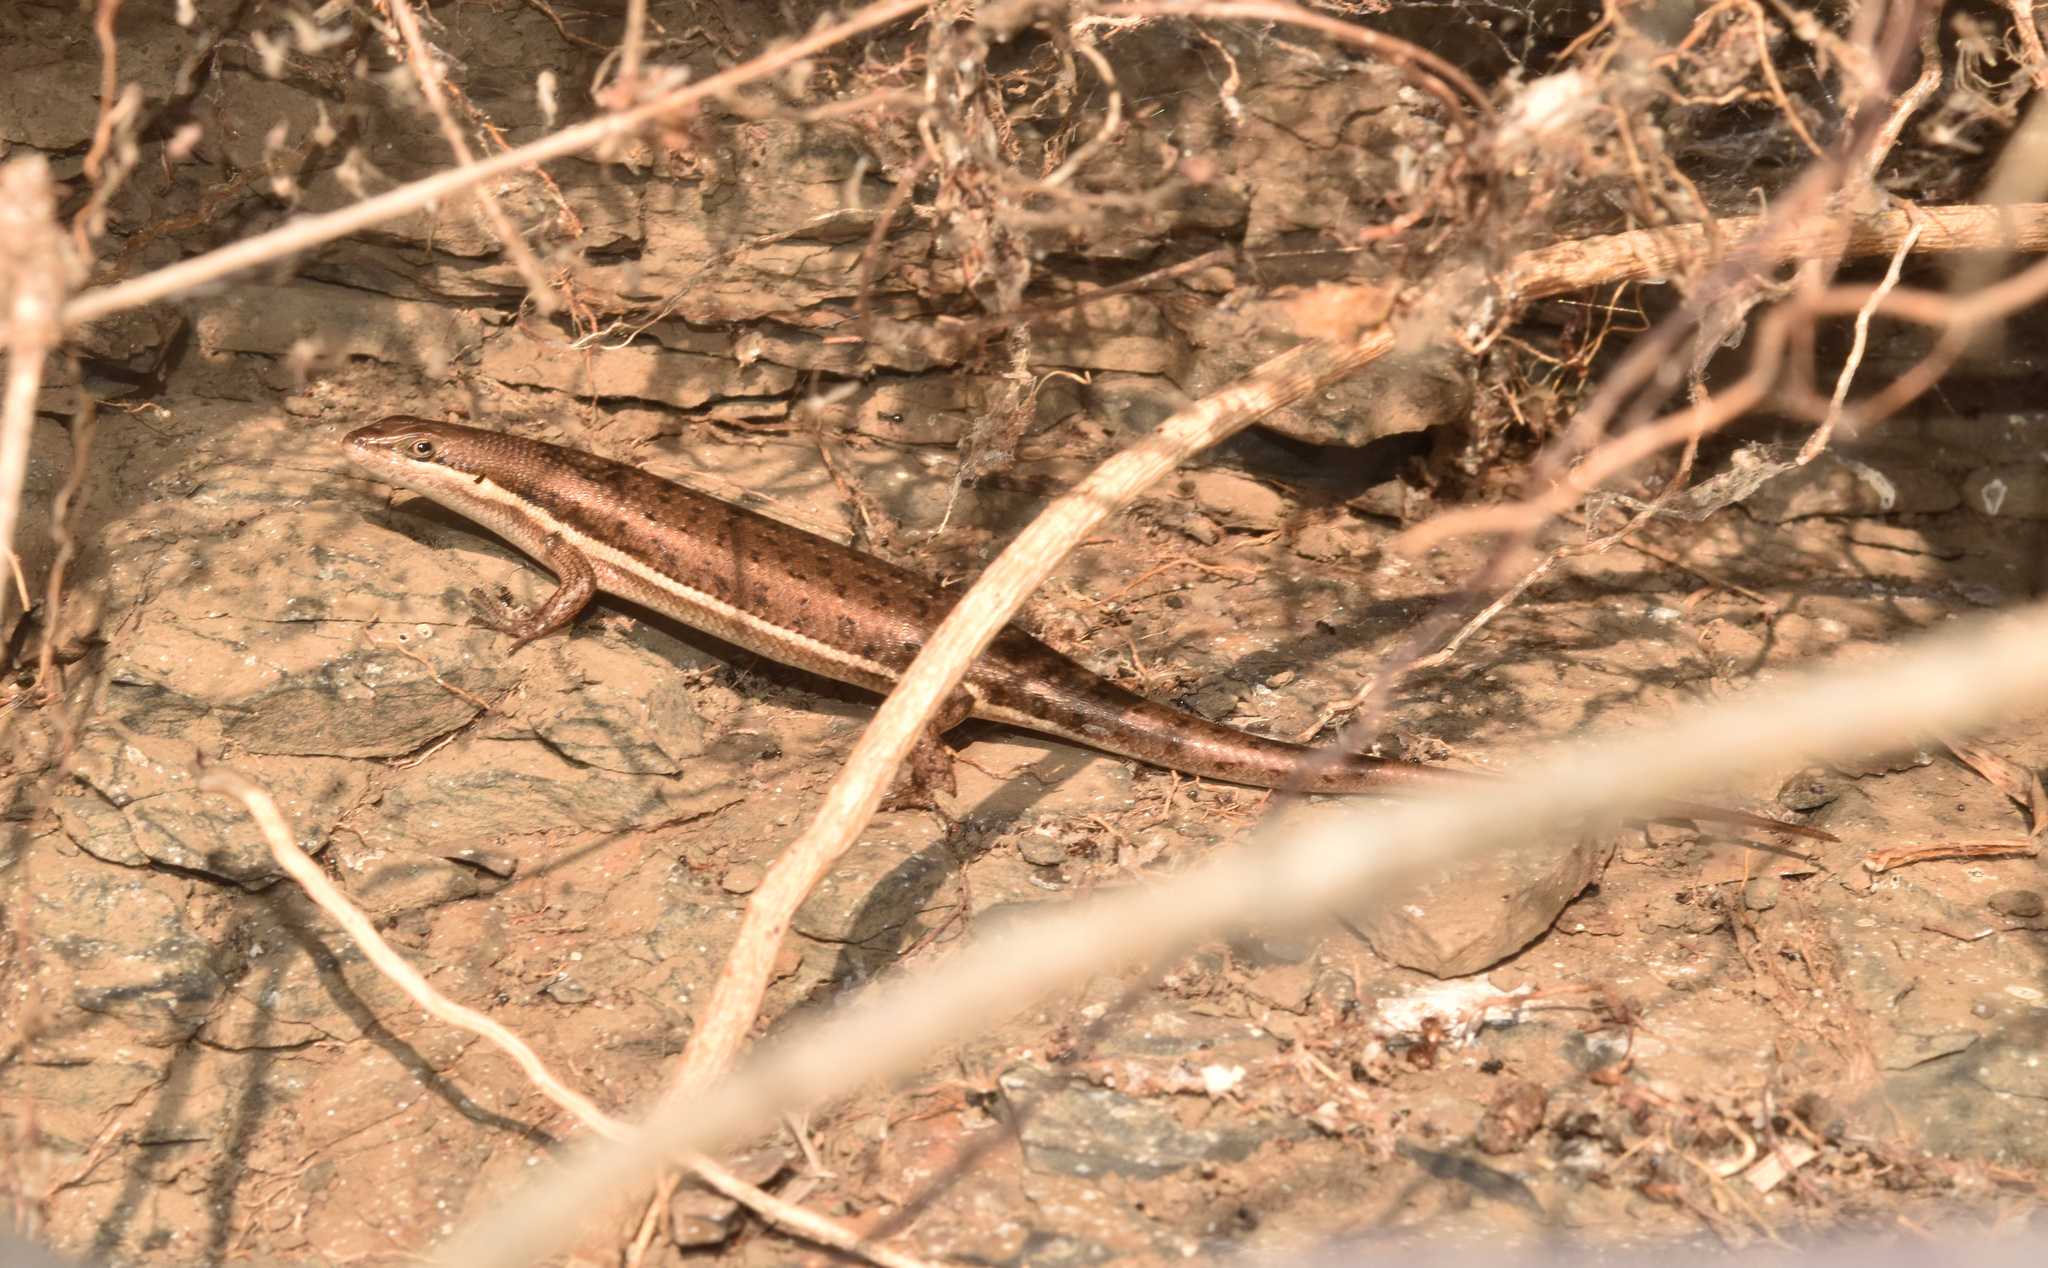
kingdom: Animalia
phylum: Chordata
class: Squamata
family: Scincidae
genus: Trachylepis
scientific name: Trachylepis varia
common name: Eastern variable skink
